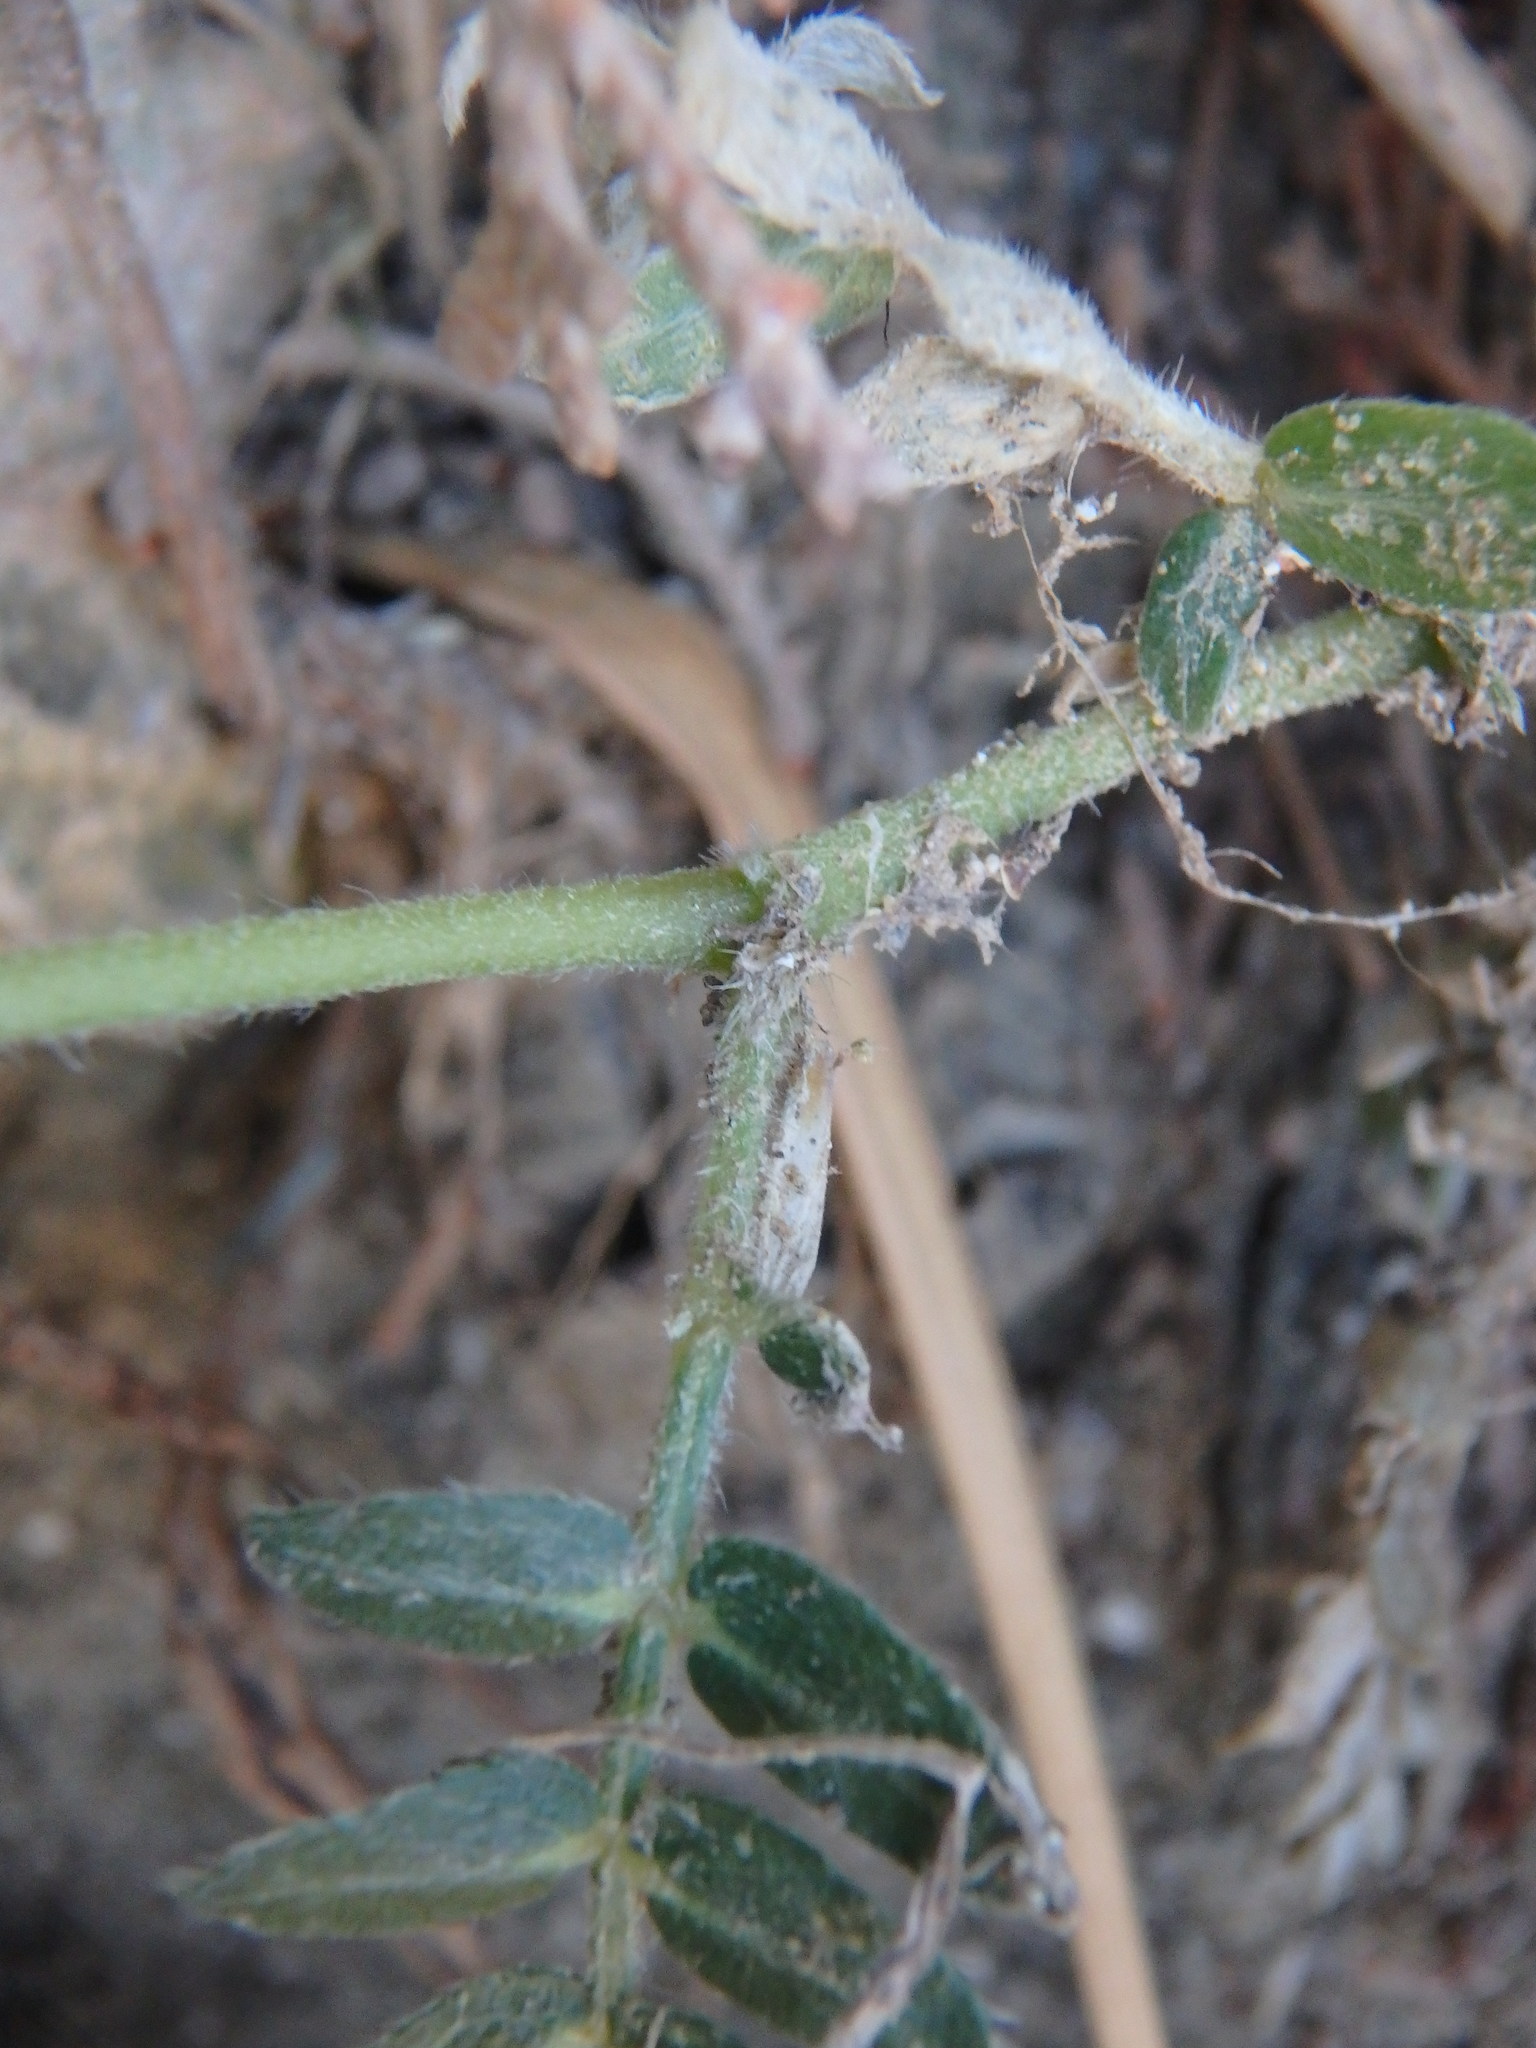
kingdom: Plantae
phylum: Tracheophyta
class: Magnoliopsida
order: Zygophyllales
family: Zygophyllaceae
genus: Tribulus
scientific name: Tribulus terrestris
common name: Puncturevine
